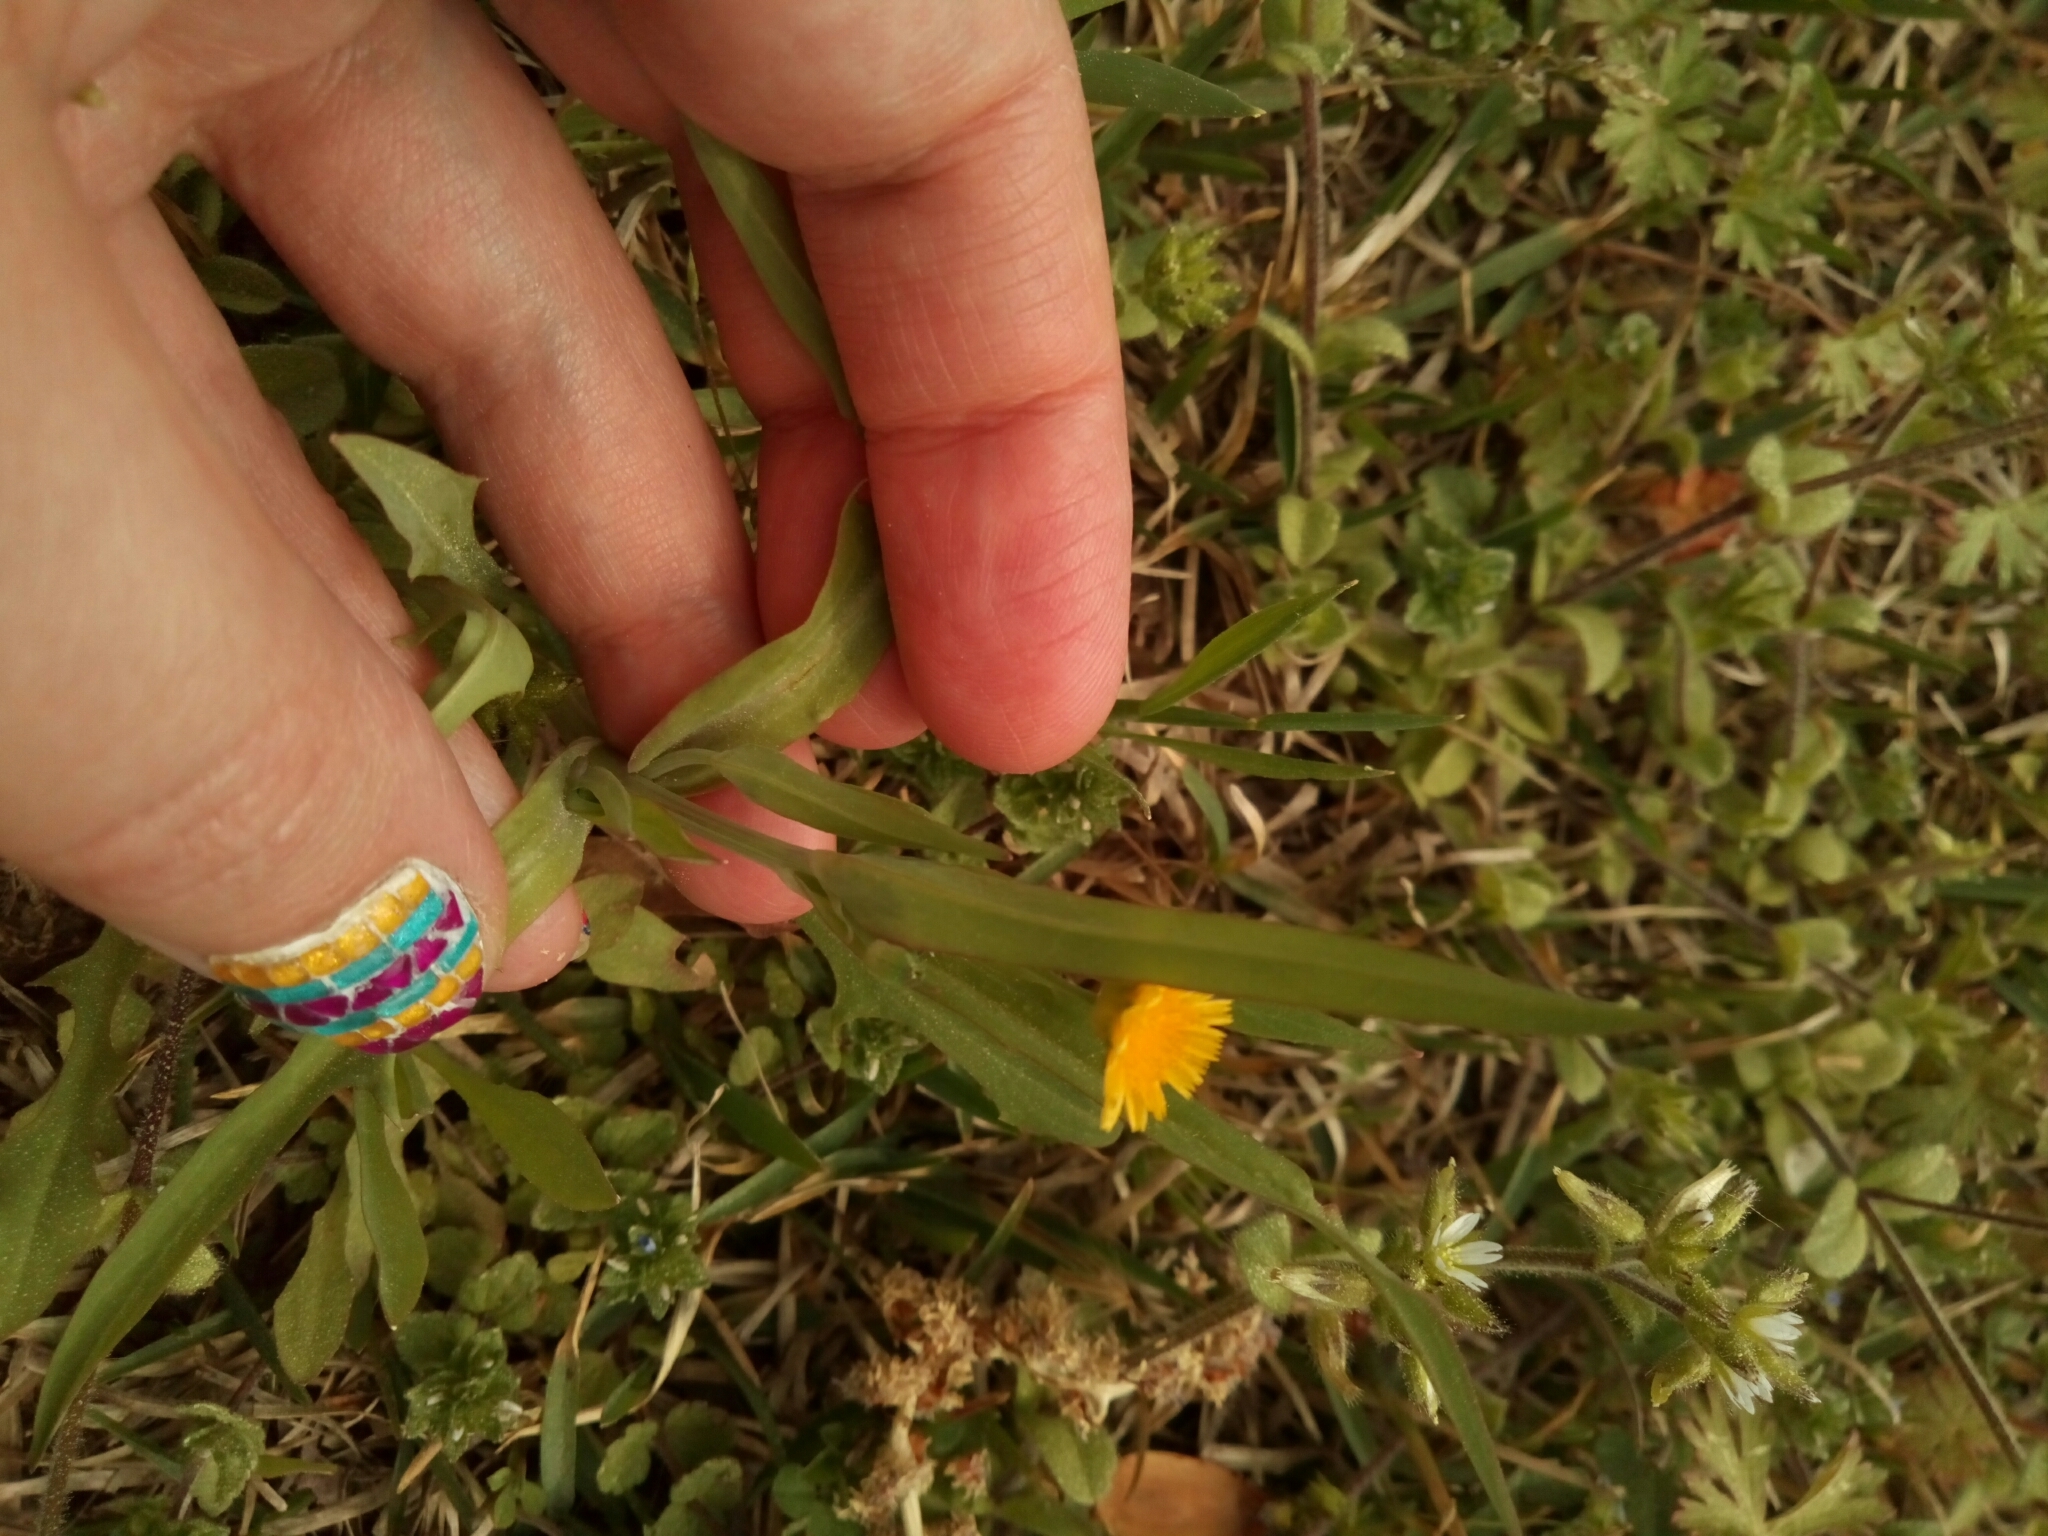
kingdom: Plantae
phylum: Tracheophyta
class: Magnoliopsida
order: Asterales
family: Asteraceae
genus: Krigia
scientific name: Krigia cespitosa
